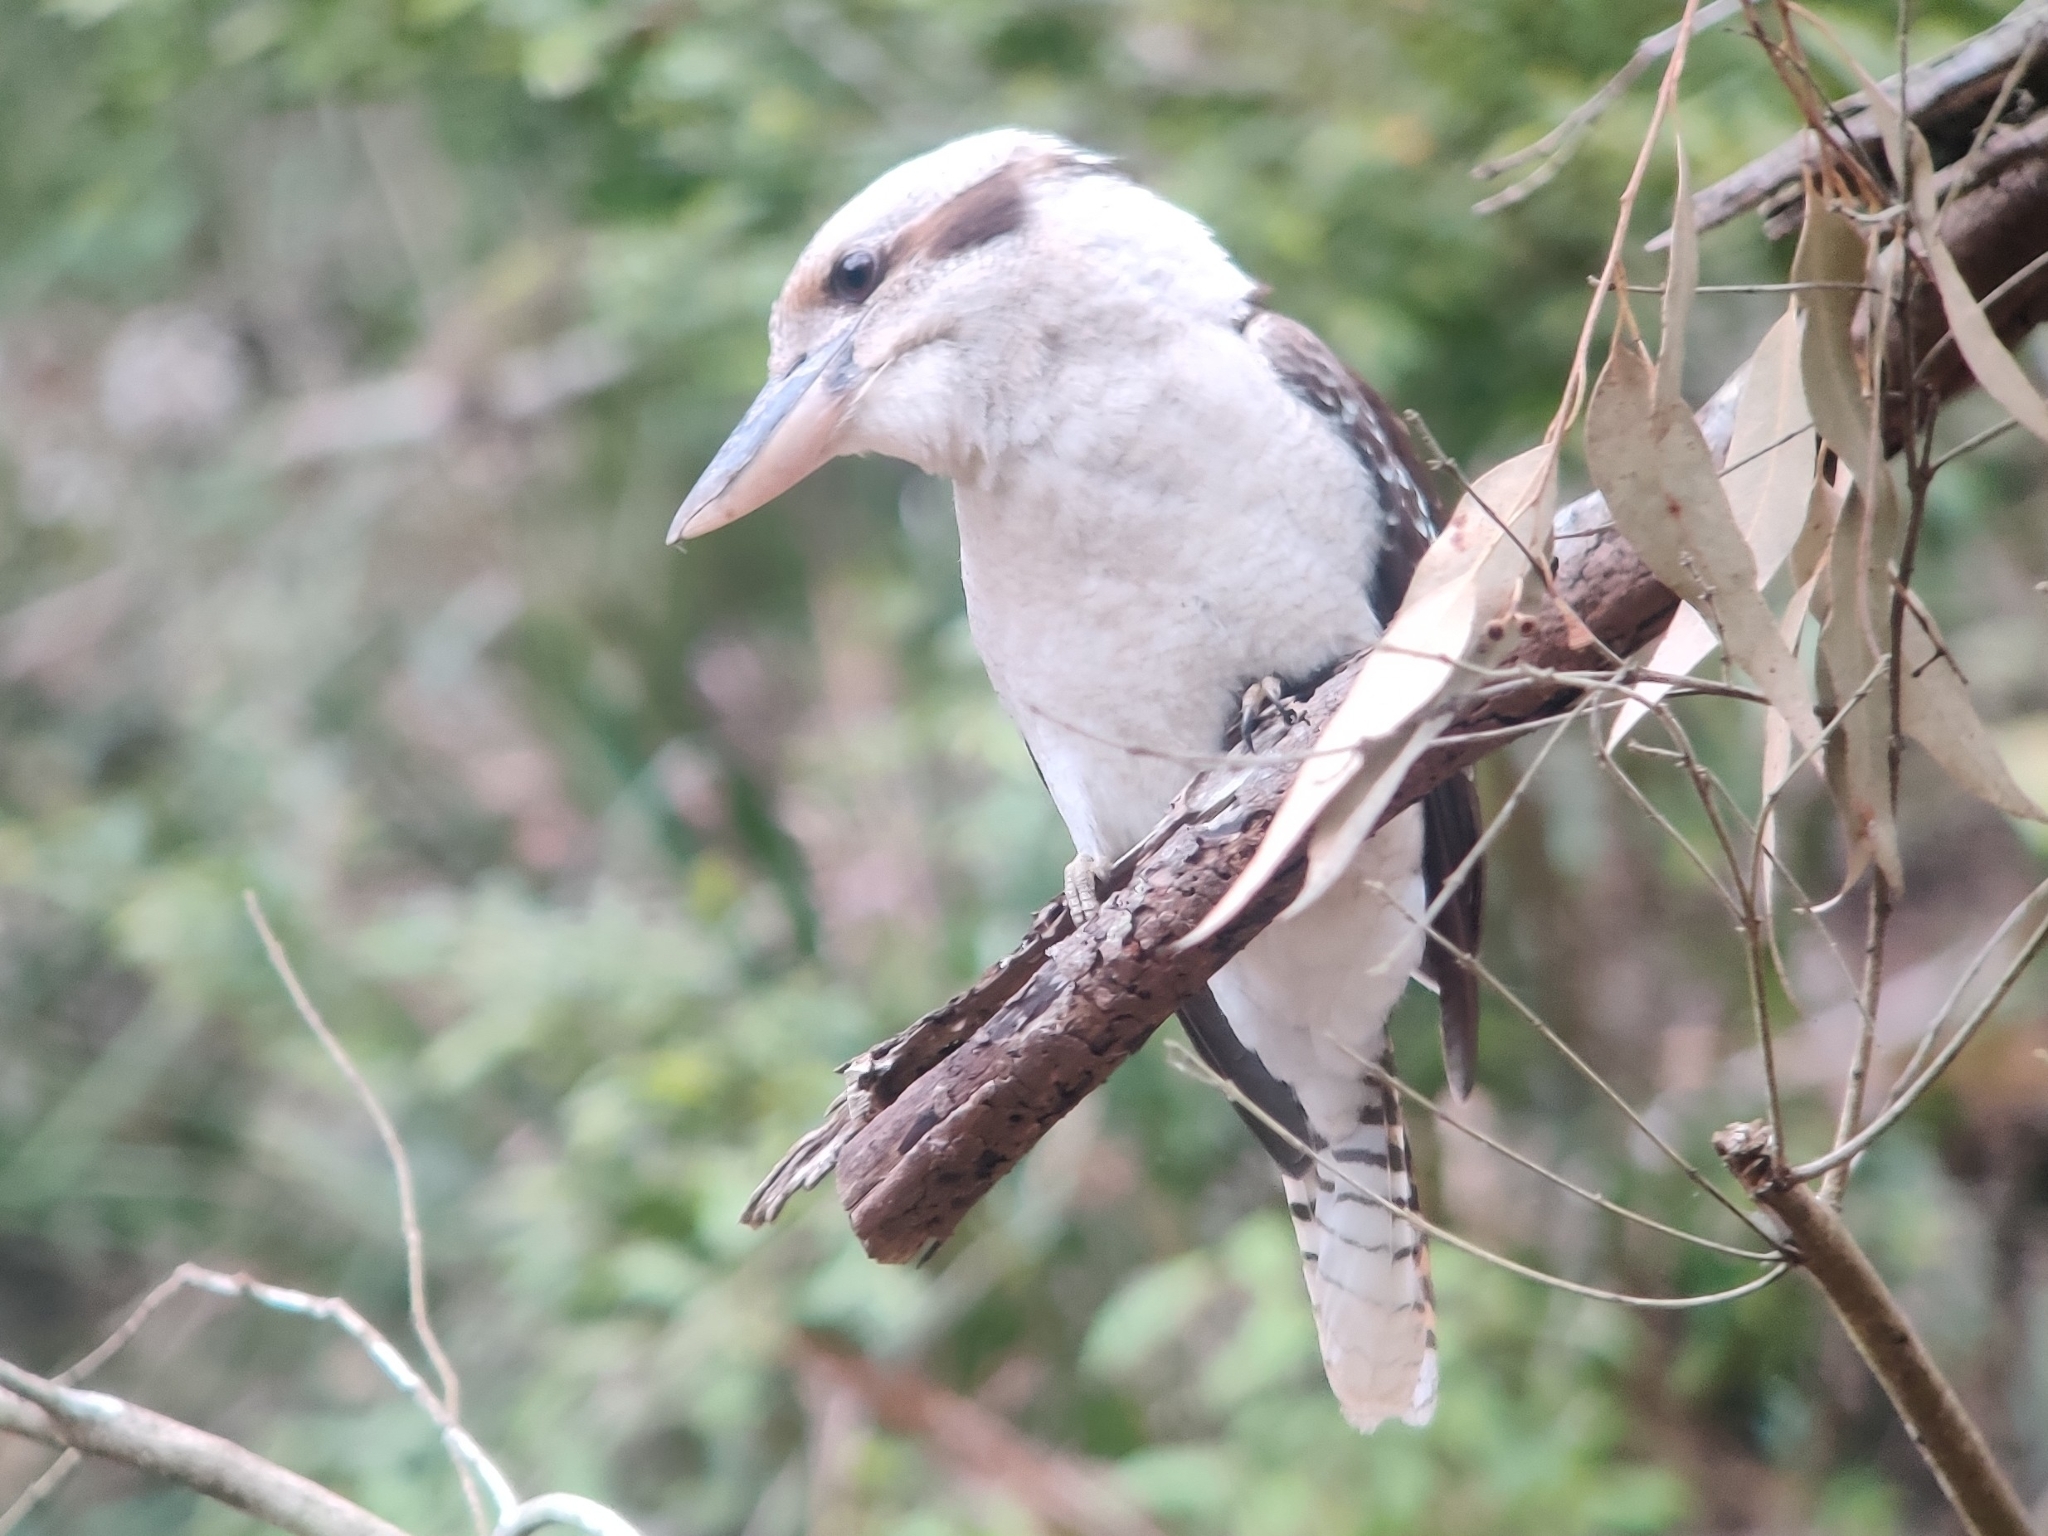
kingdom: Animalia
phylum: Chordata
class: Aves
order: Coraciiformes
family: Alcedinidae
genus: Dacelo
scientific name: Dacelo novaeguineae
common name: Laughing kookaburra
